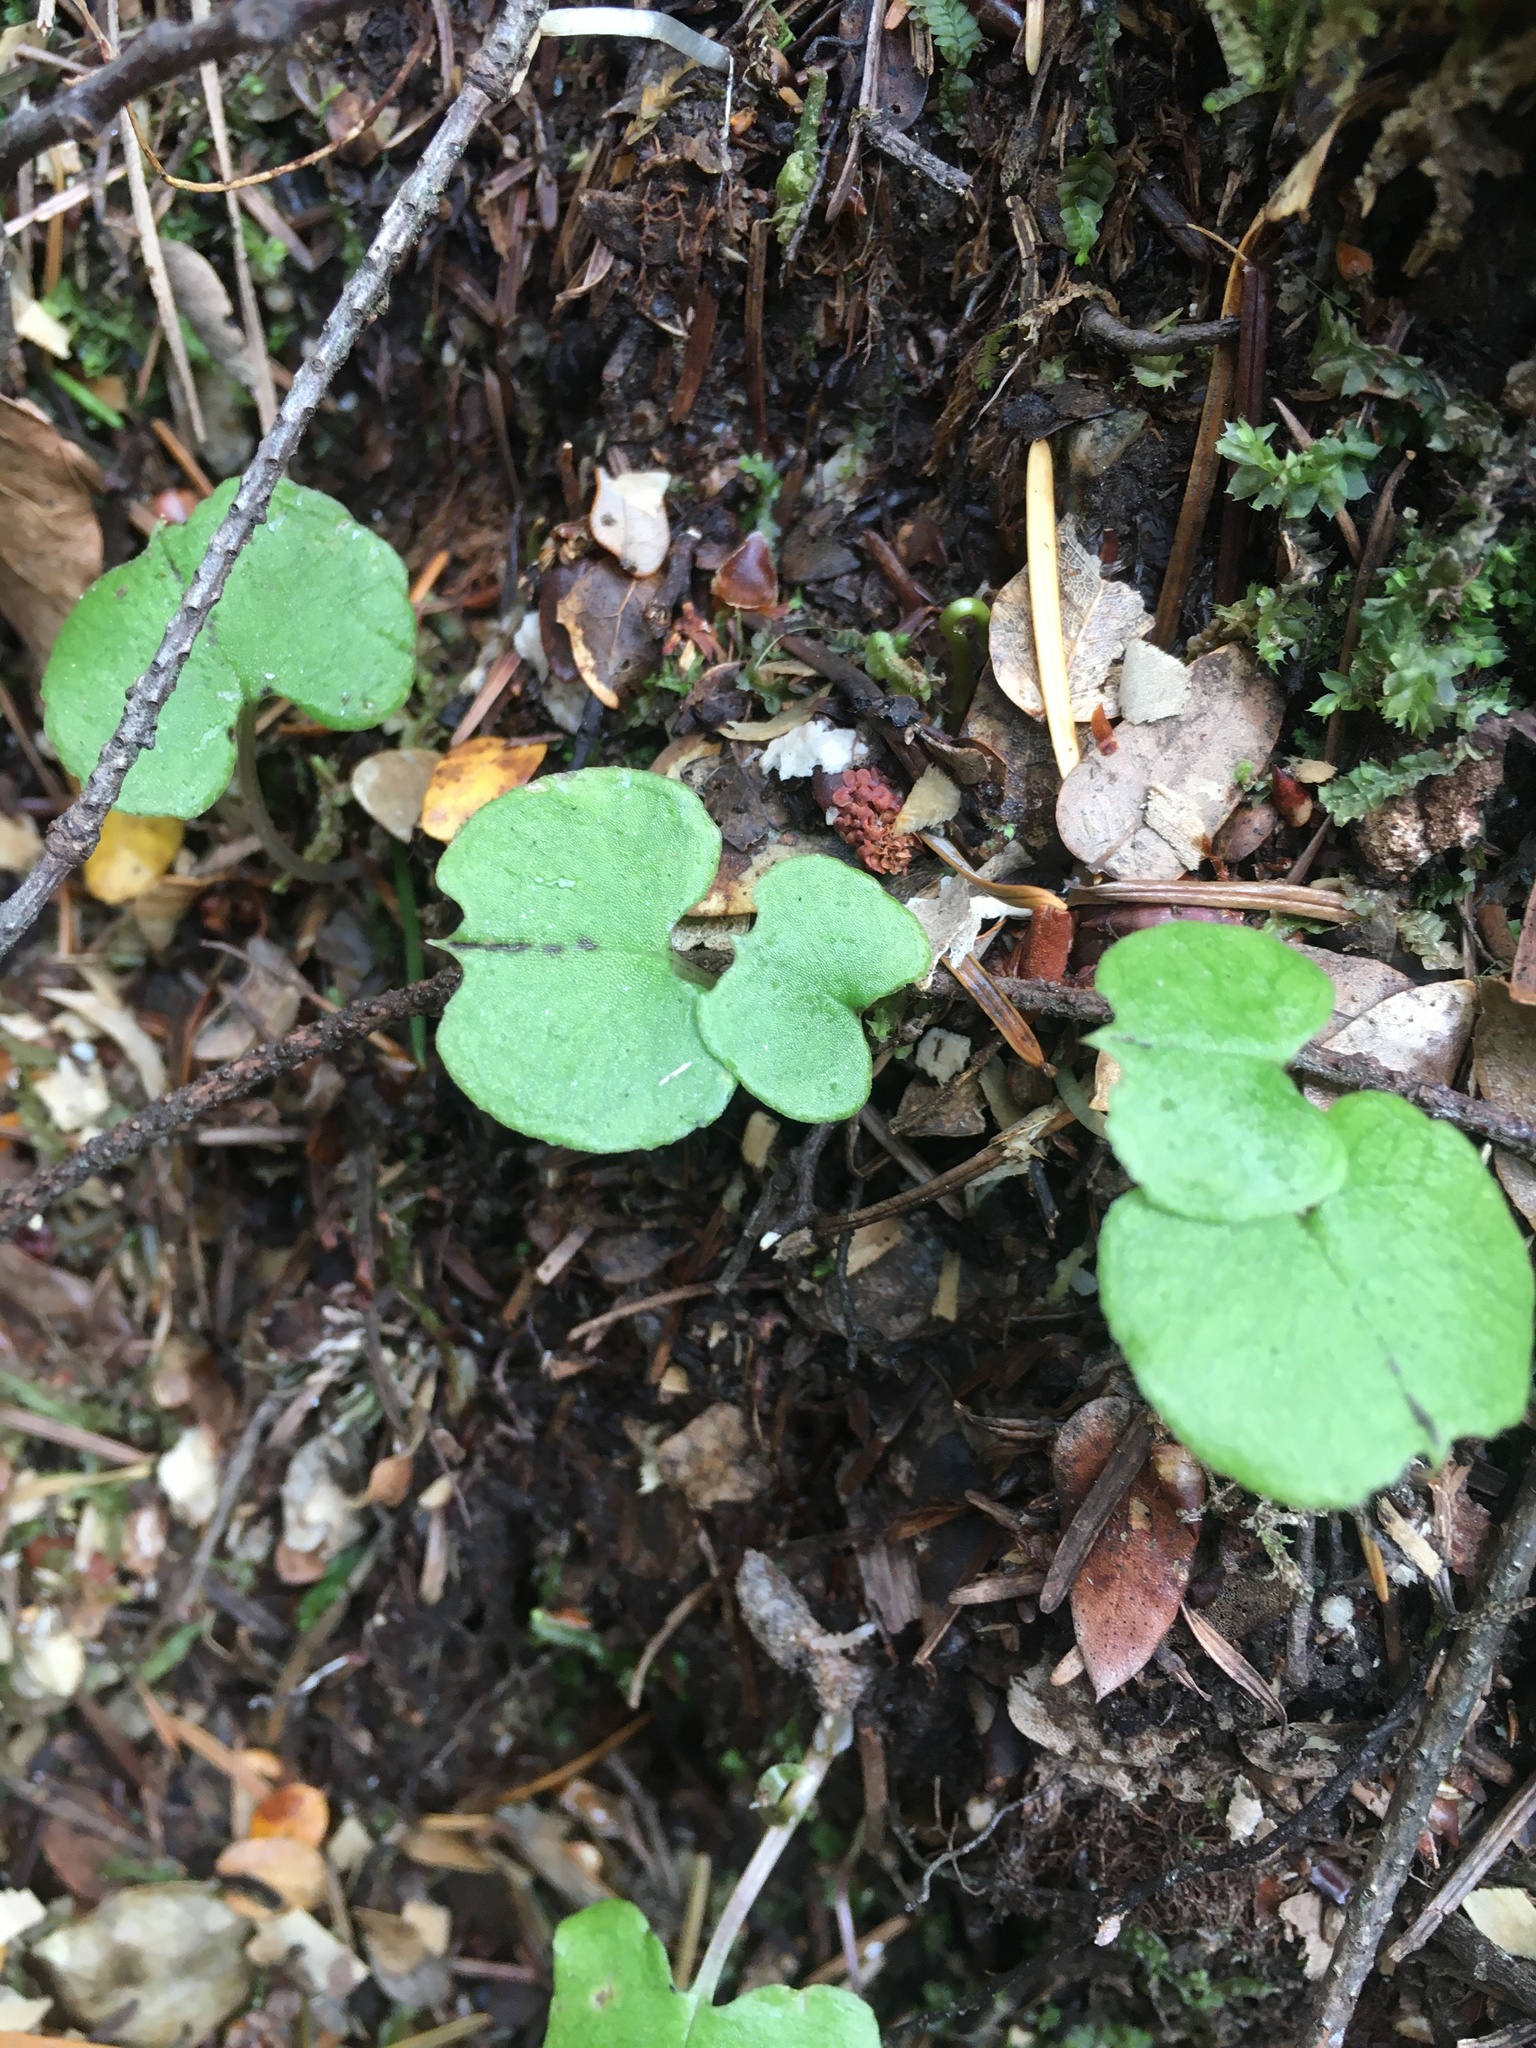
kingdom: Plantae
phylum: Tracheophyta
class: Liliopsida
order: Asparagales
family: Orchidaceae
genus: Corybas
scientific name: Corybas trilobus
